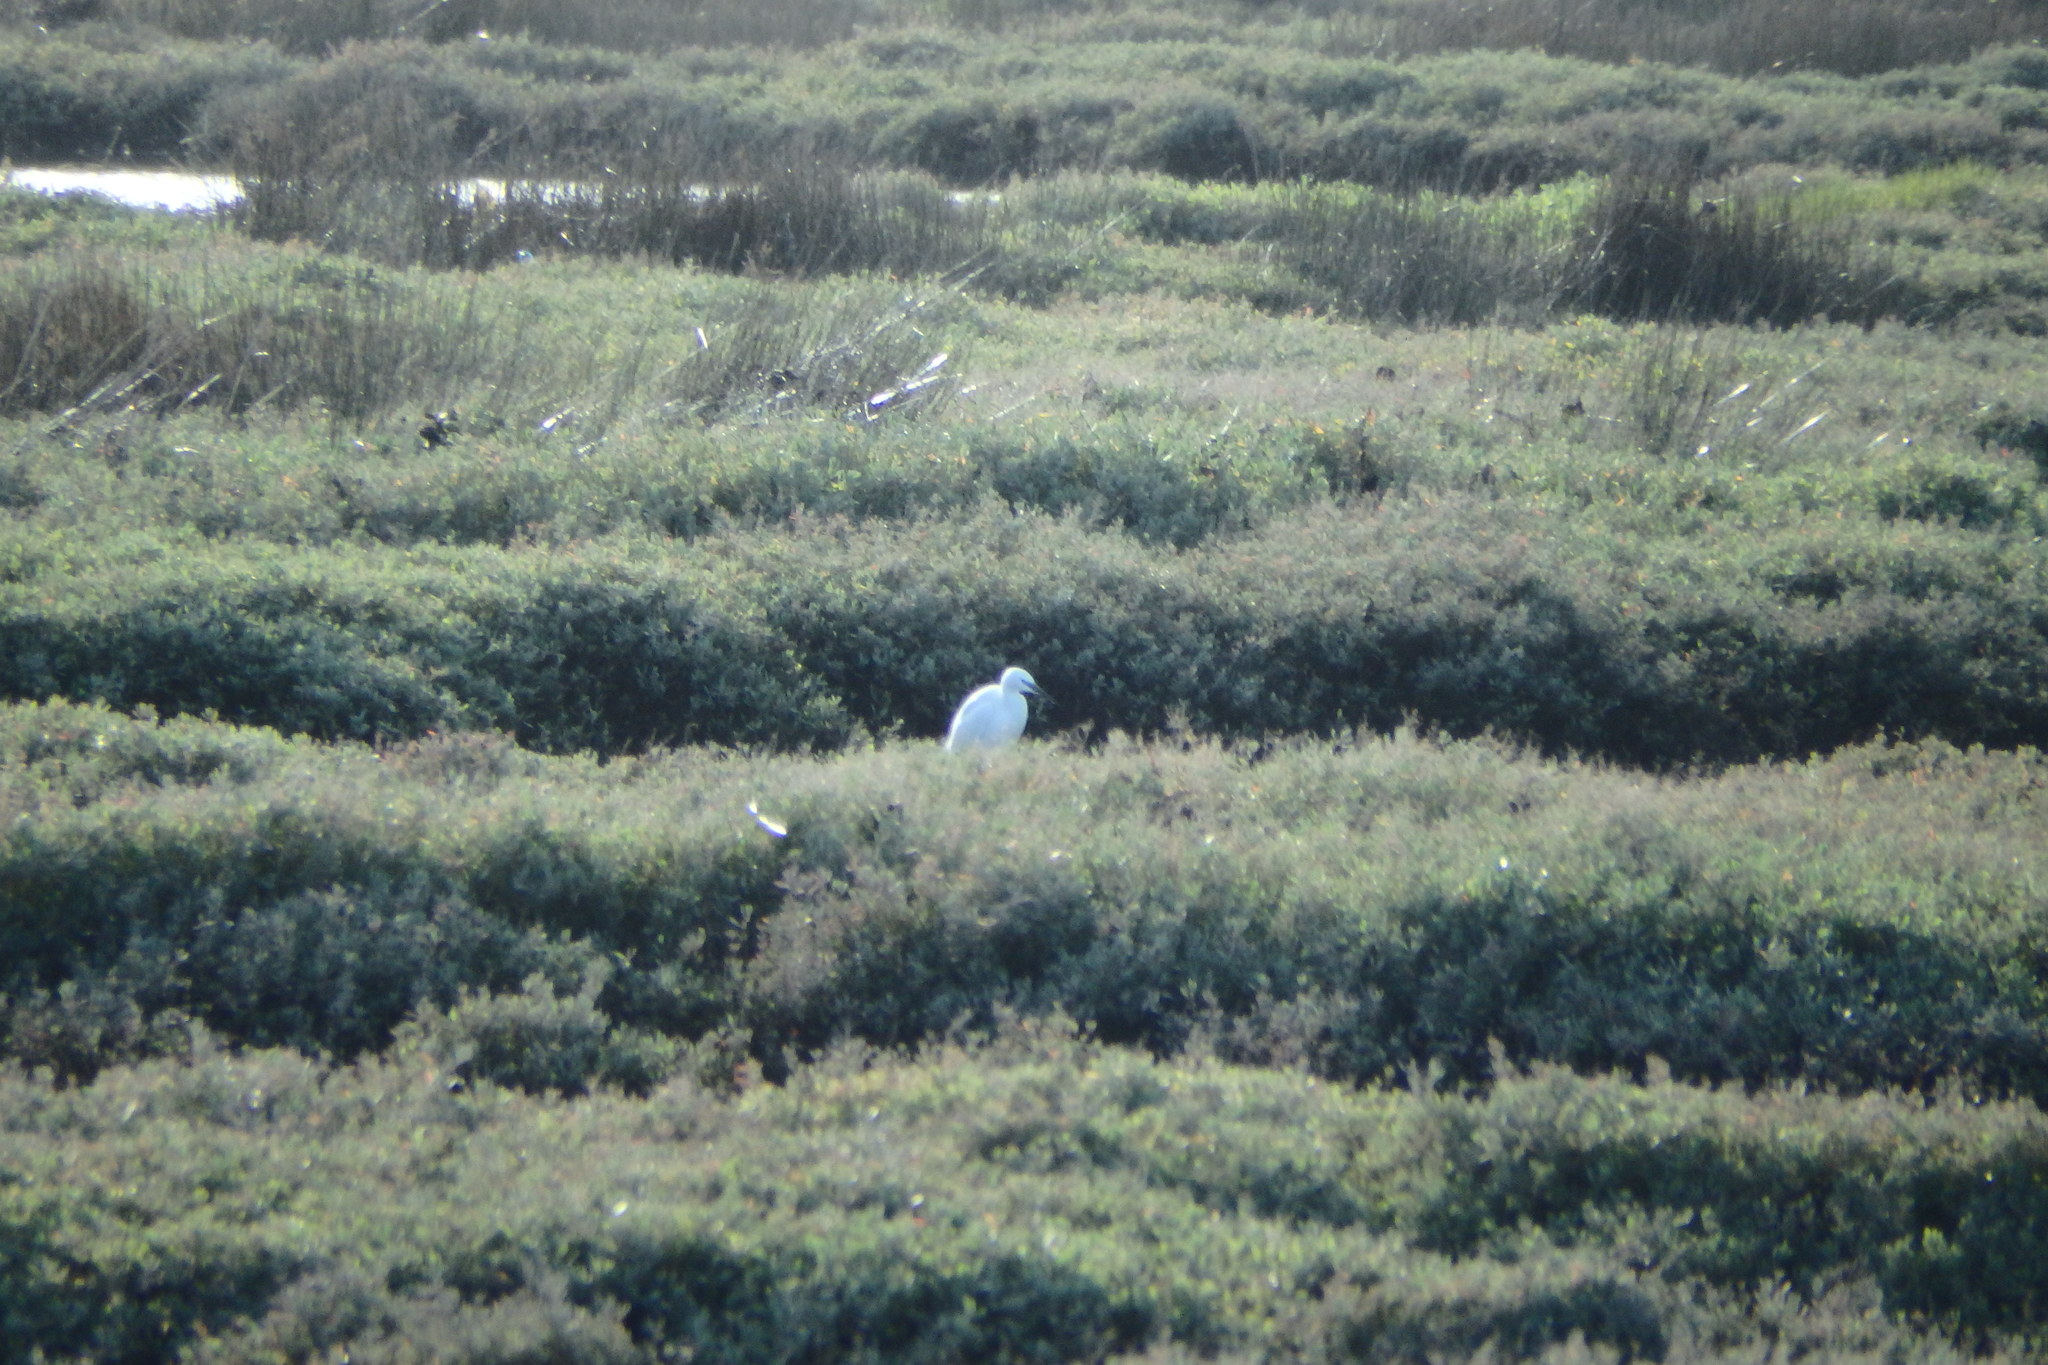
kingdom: Animalia
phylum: Chordata
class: Aves
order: Pelecaniformes
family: Ardeidae
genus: Egretta
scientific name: Egretta garzetta
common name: Little egret
